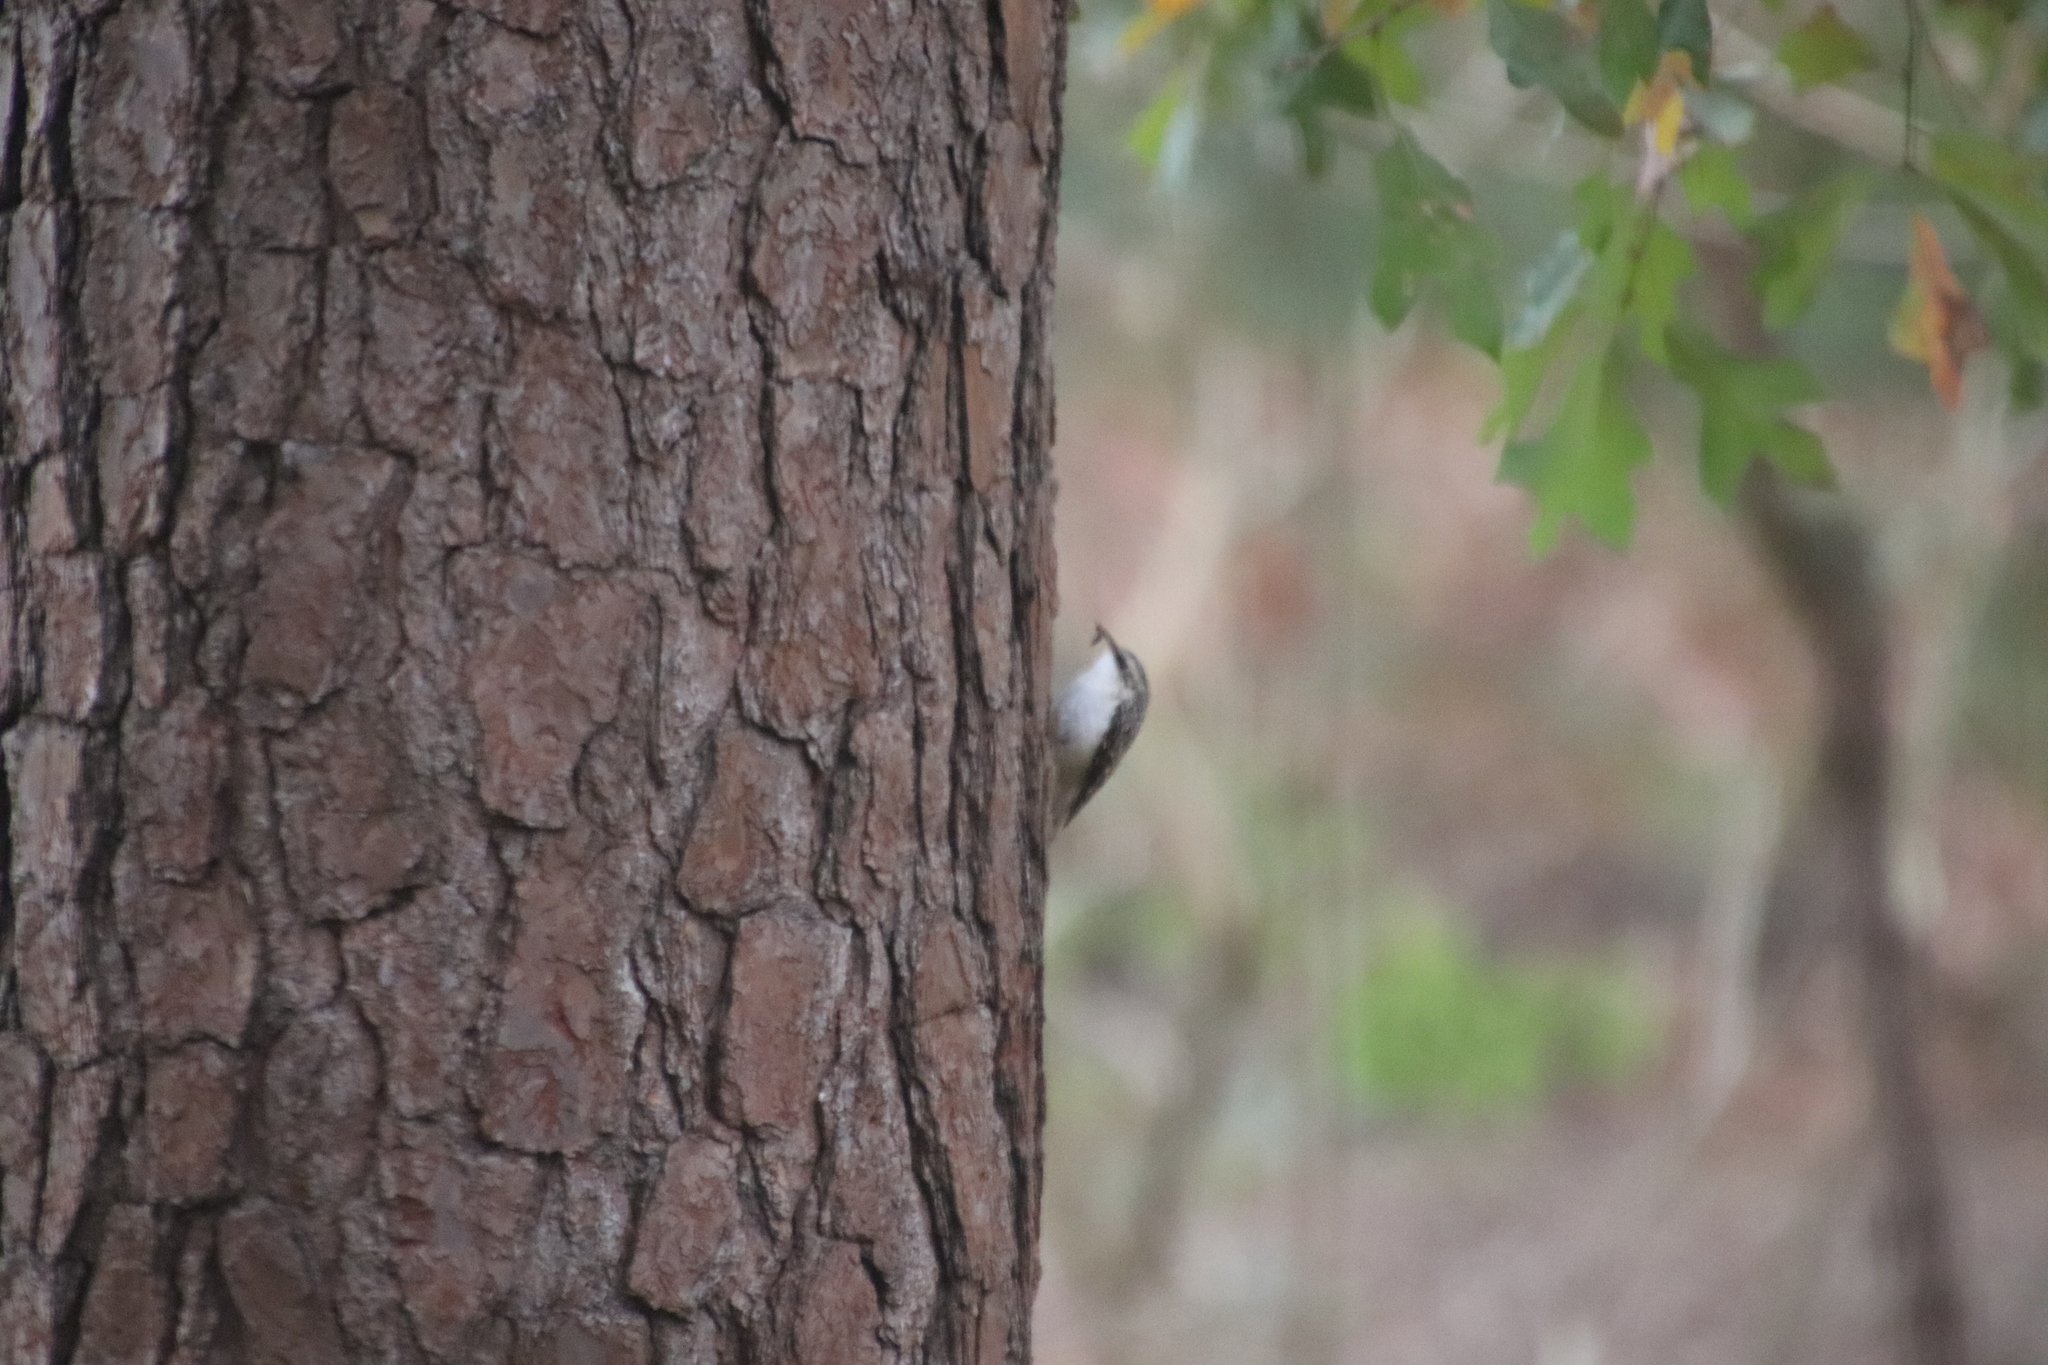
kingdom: Animalia
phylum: Chordata
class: Aves
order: Passeriformes
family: Certhiidae
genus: Certhia
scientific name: Certhia americana
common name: Brown creeper
